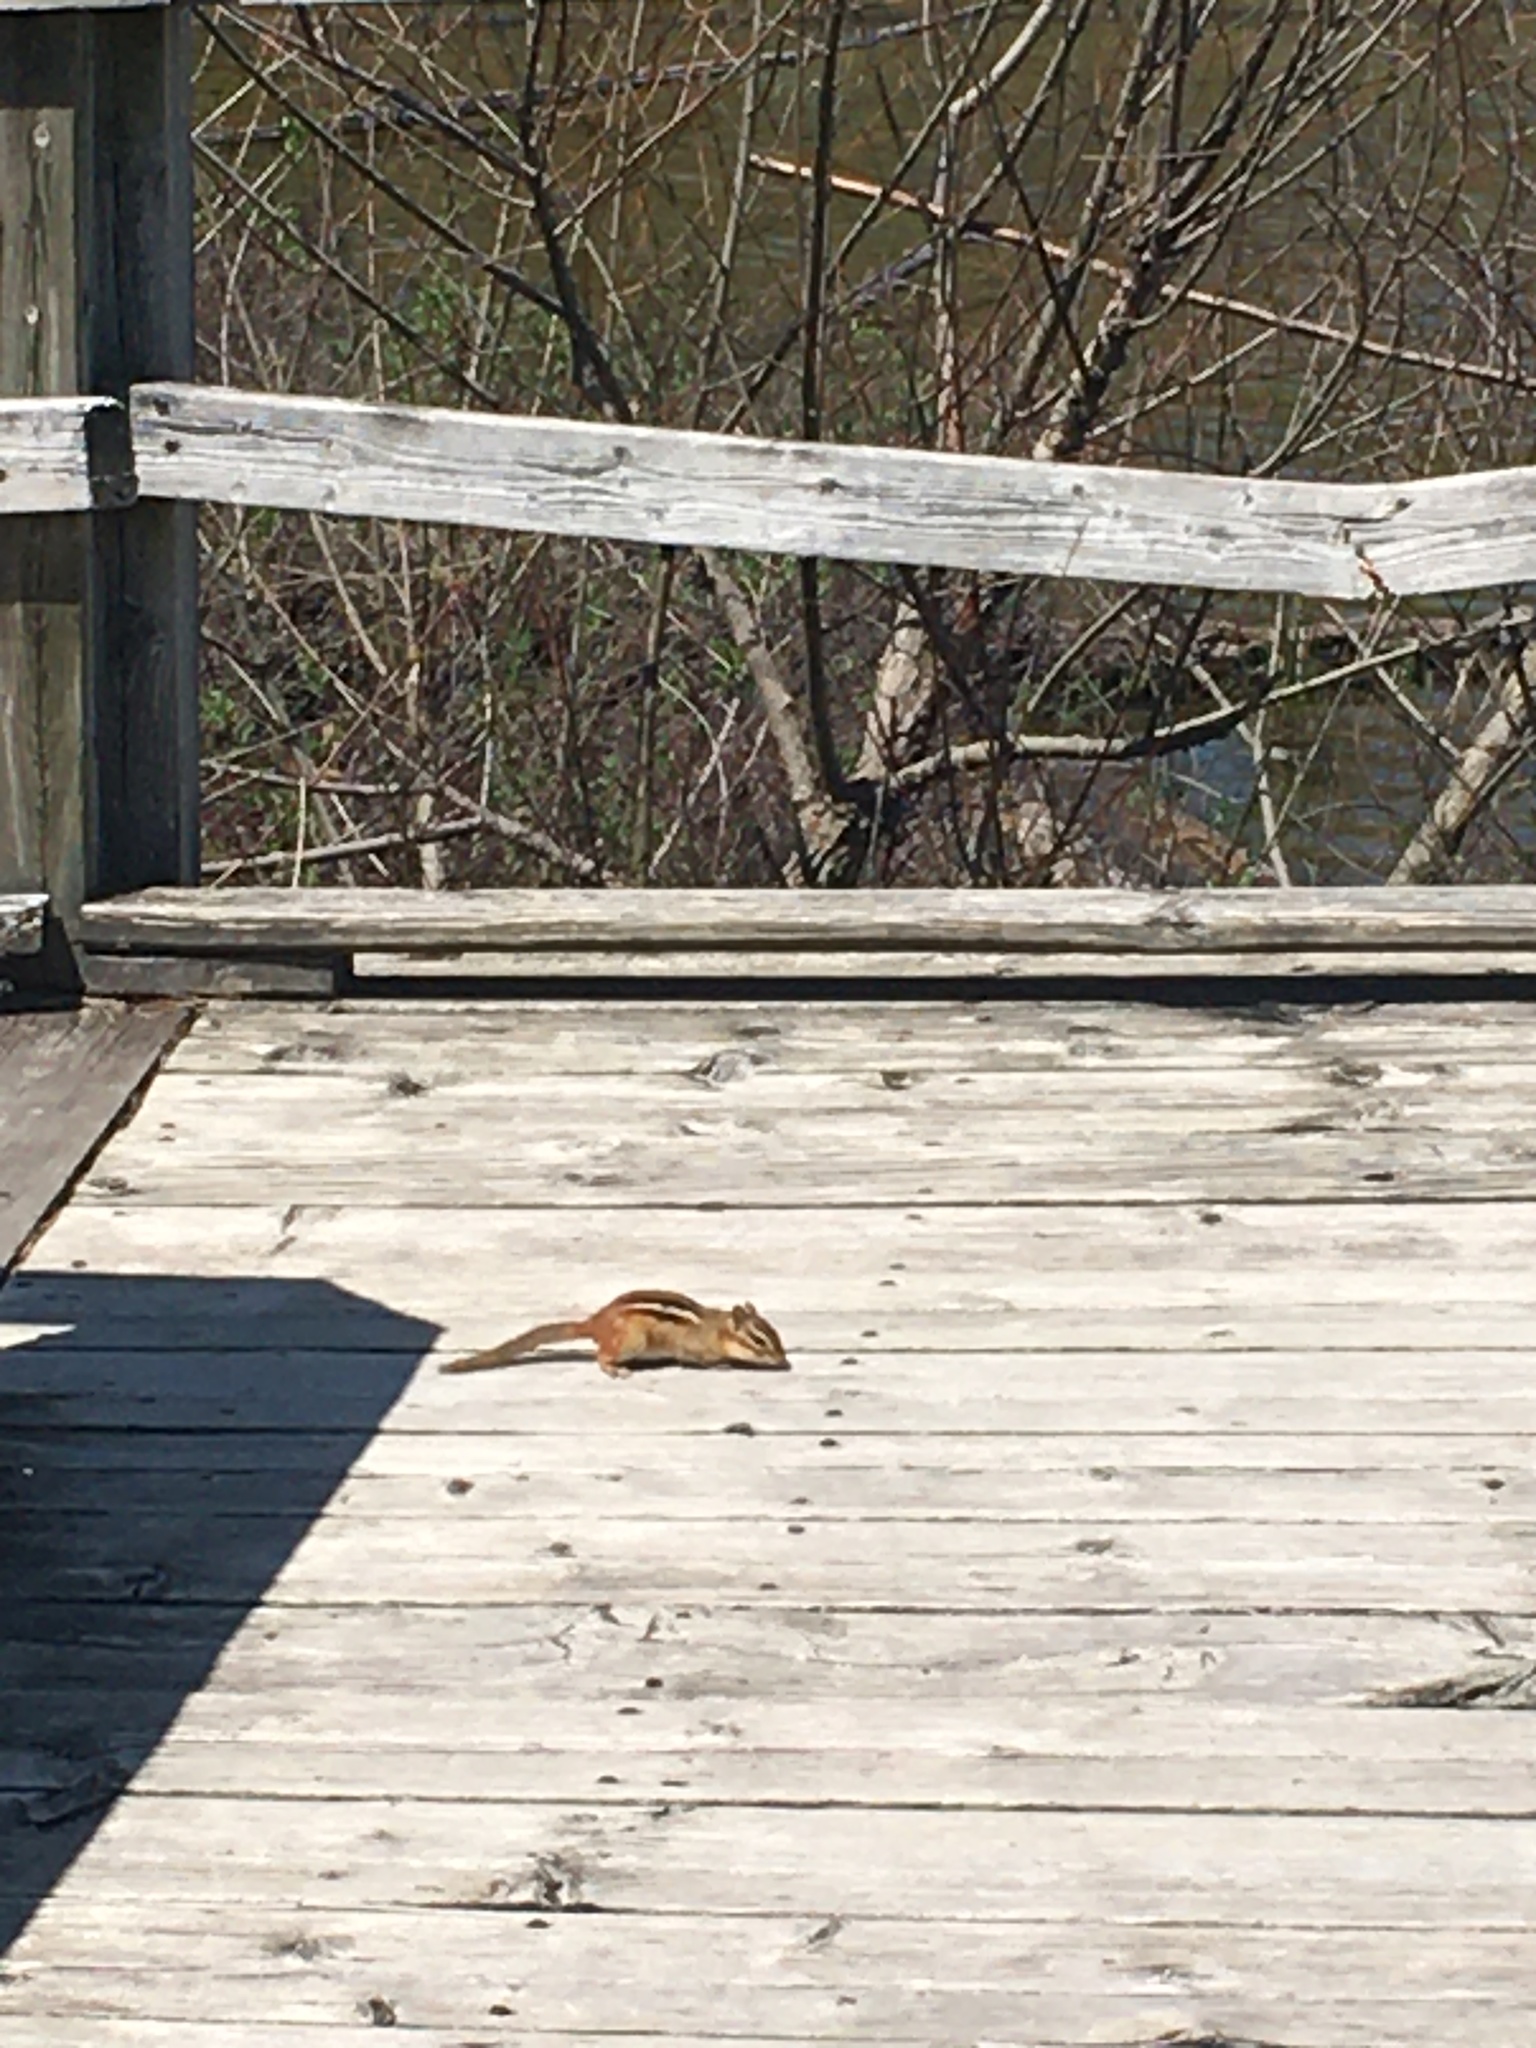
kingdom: Animalia
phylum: Chordata
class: Mammalia
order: Rodentia
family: Sciuridae
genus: Tamias
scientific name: Tamias striatus
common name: Eastern chipmunk
